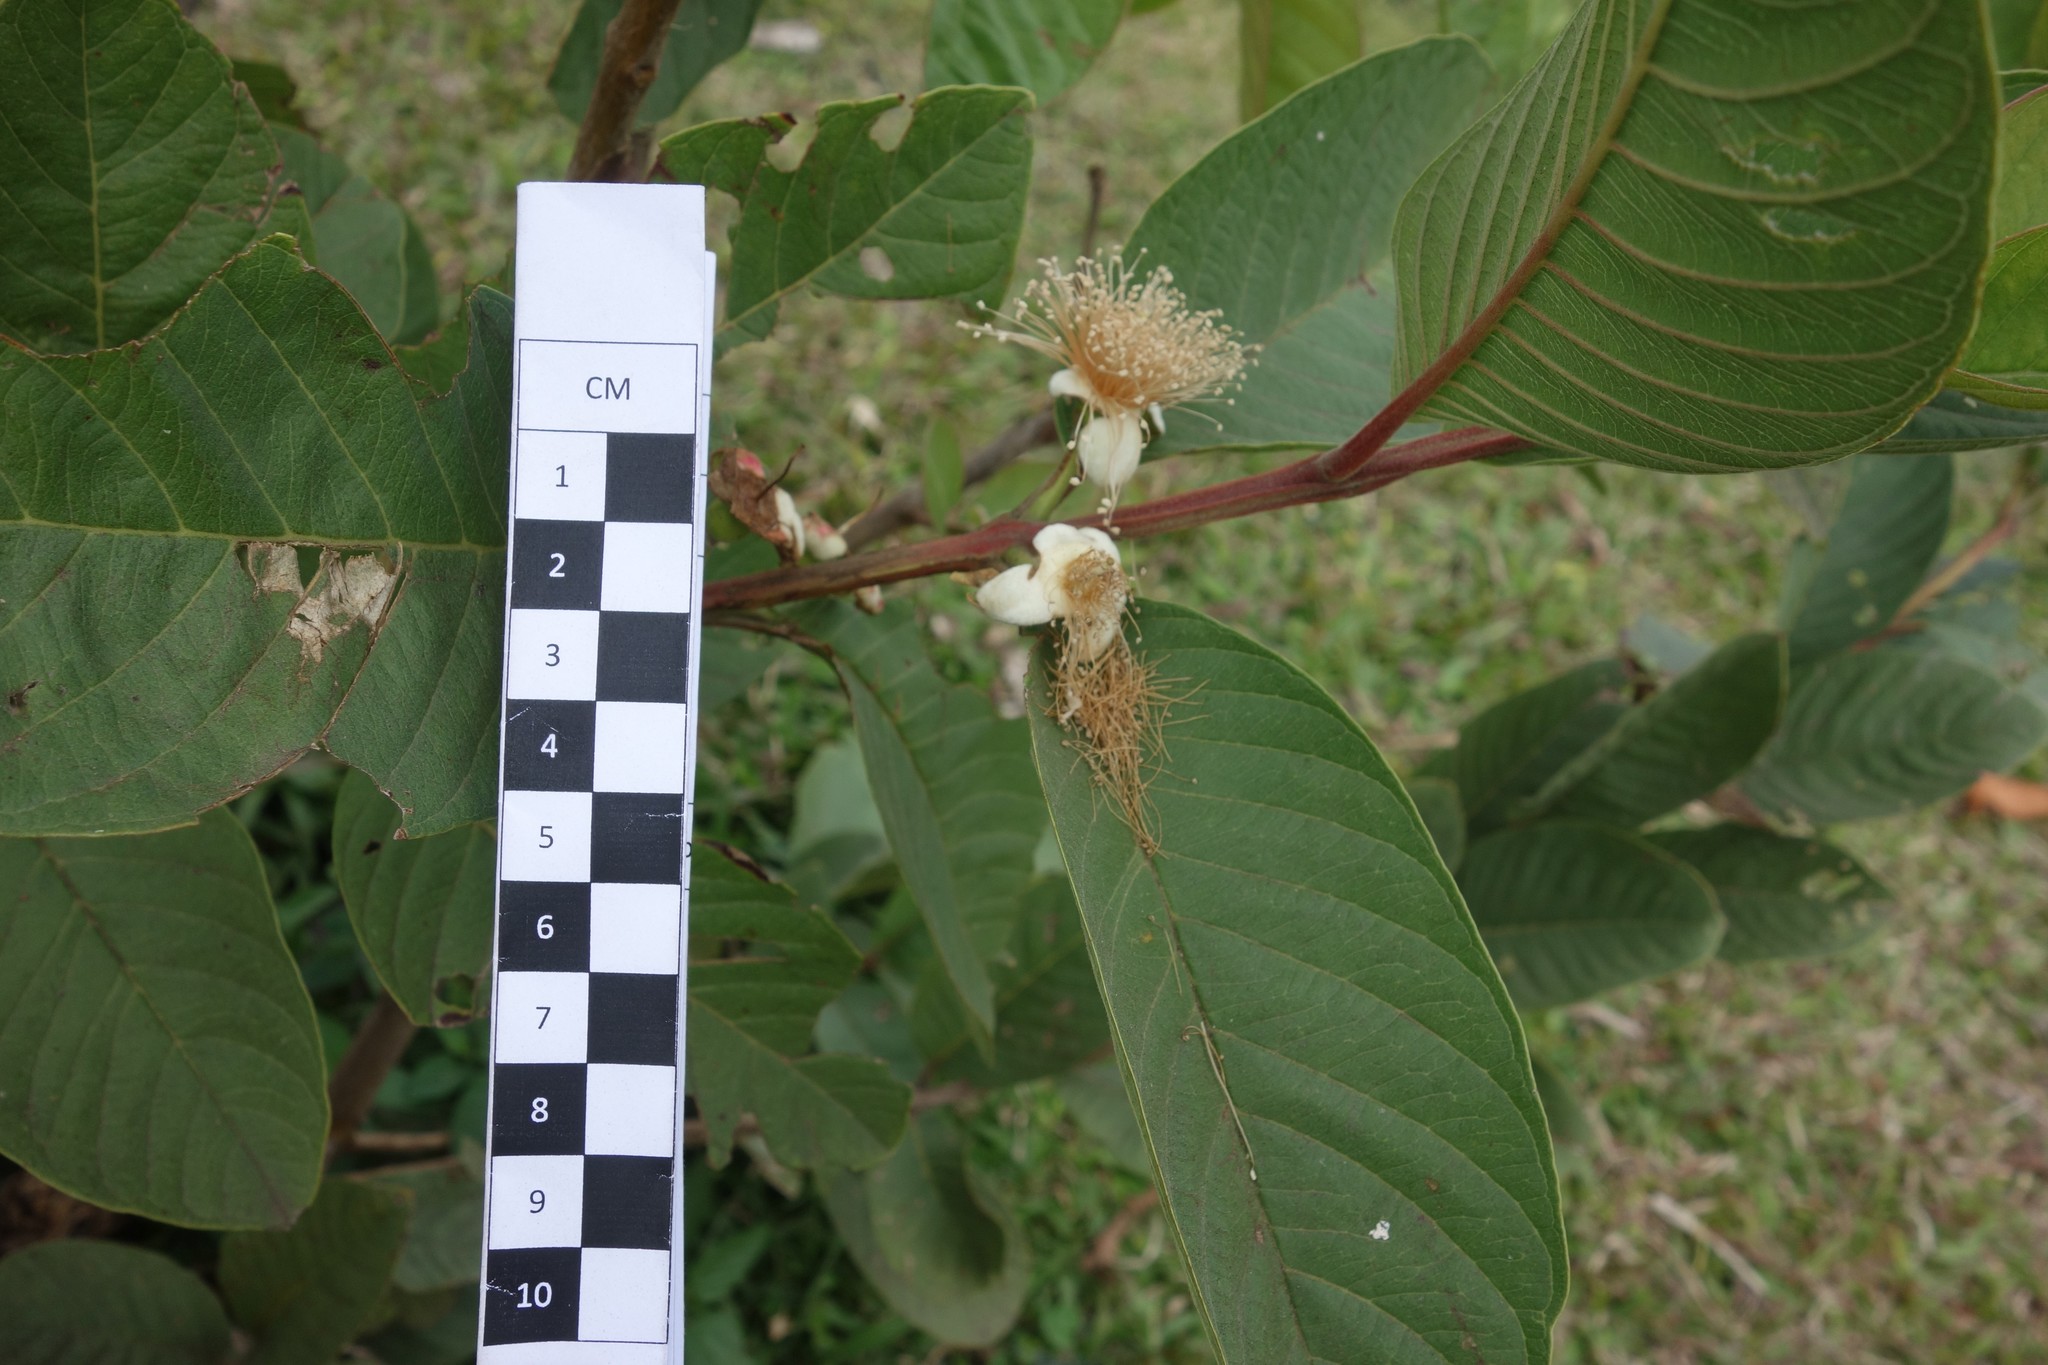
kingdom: Plantae
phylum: Tracheophyta
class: Magnoliopsida
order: Myrtales
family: Myrtaceae
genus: Psidium
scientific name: Psidium guajava
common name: Guava
